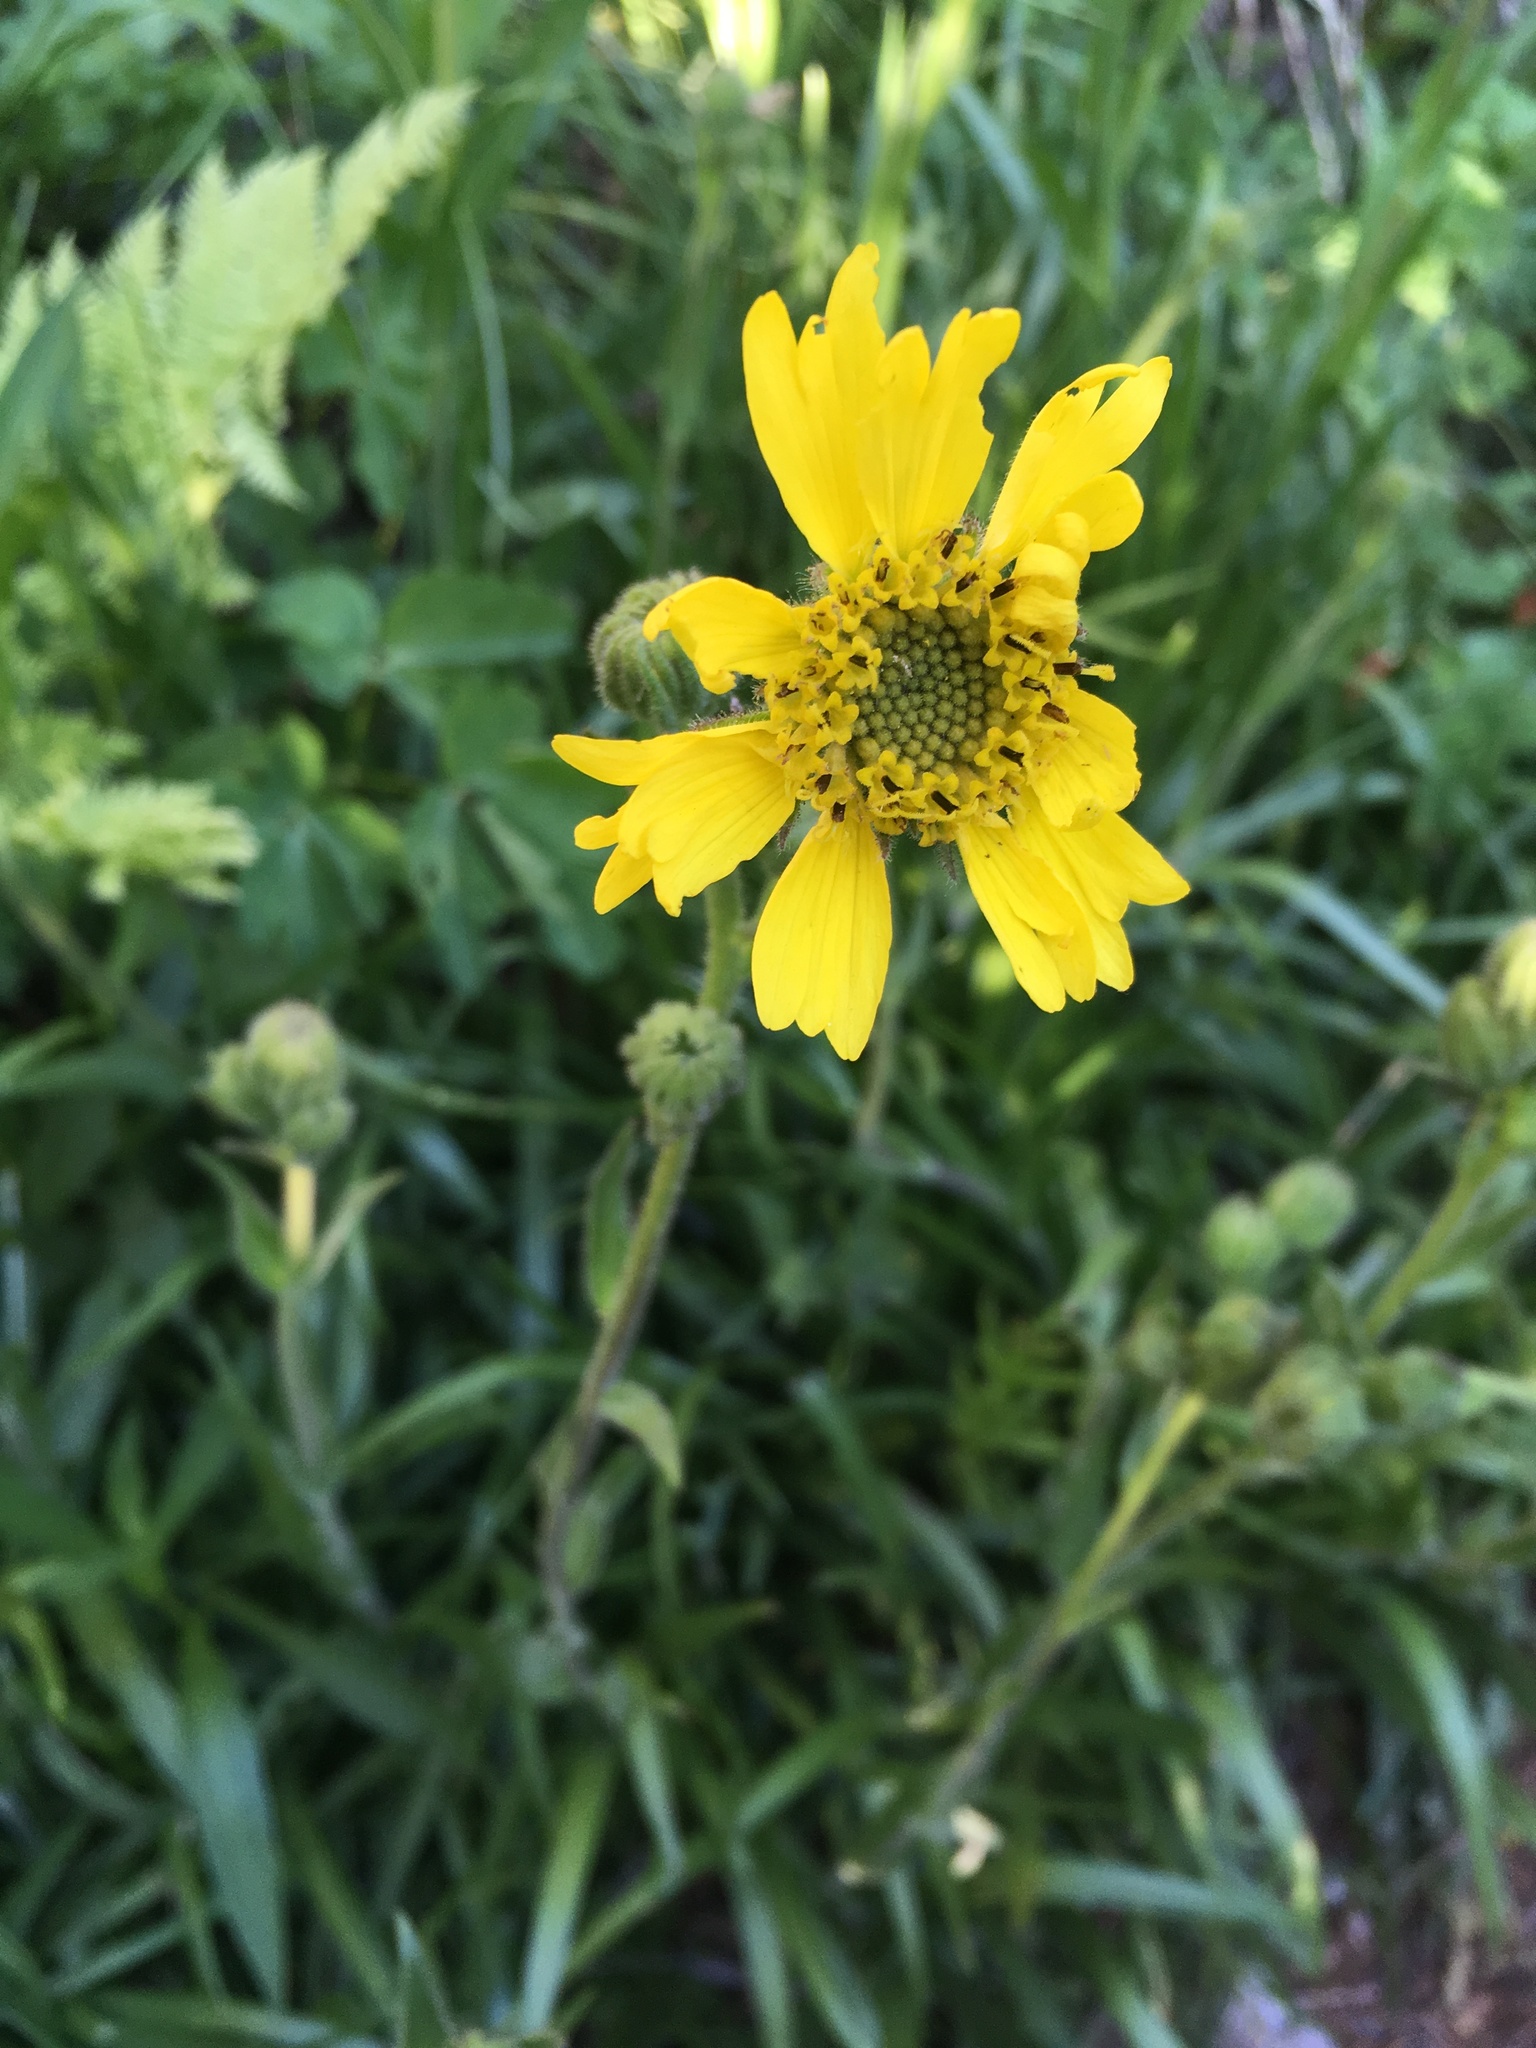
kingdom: Plantae
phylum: Tracheophyta
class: Magnoliopsida
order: Asterales
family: Asteraceae
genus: Kyhosia
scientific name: Kyhosia bolanderi
